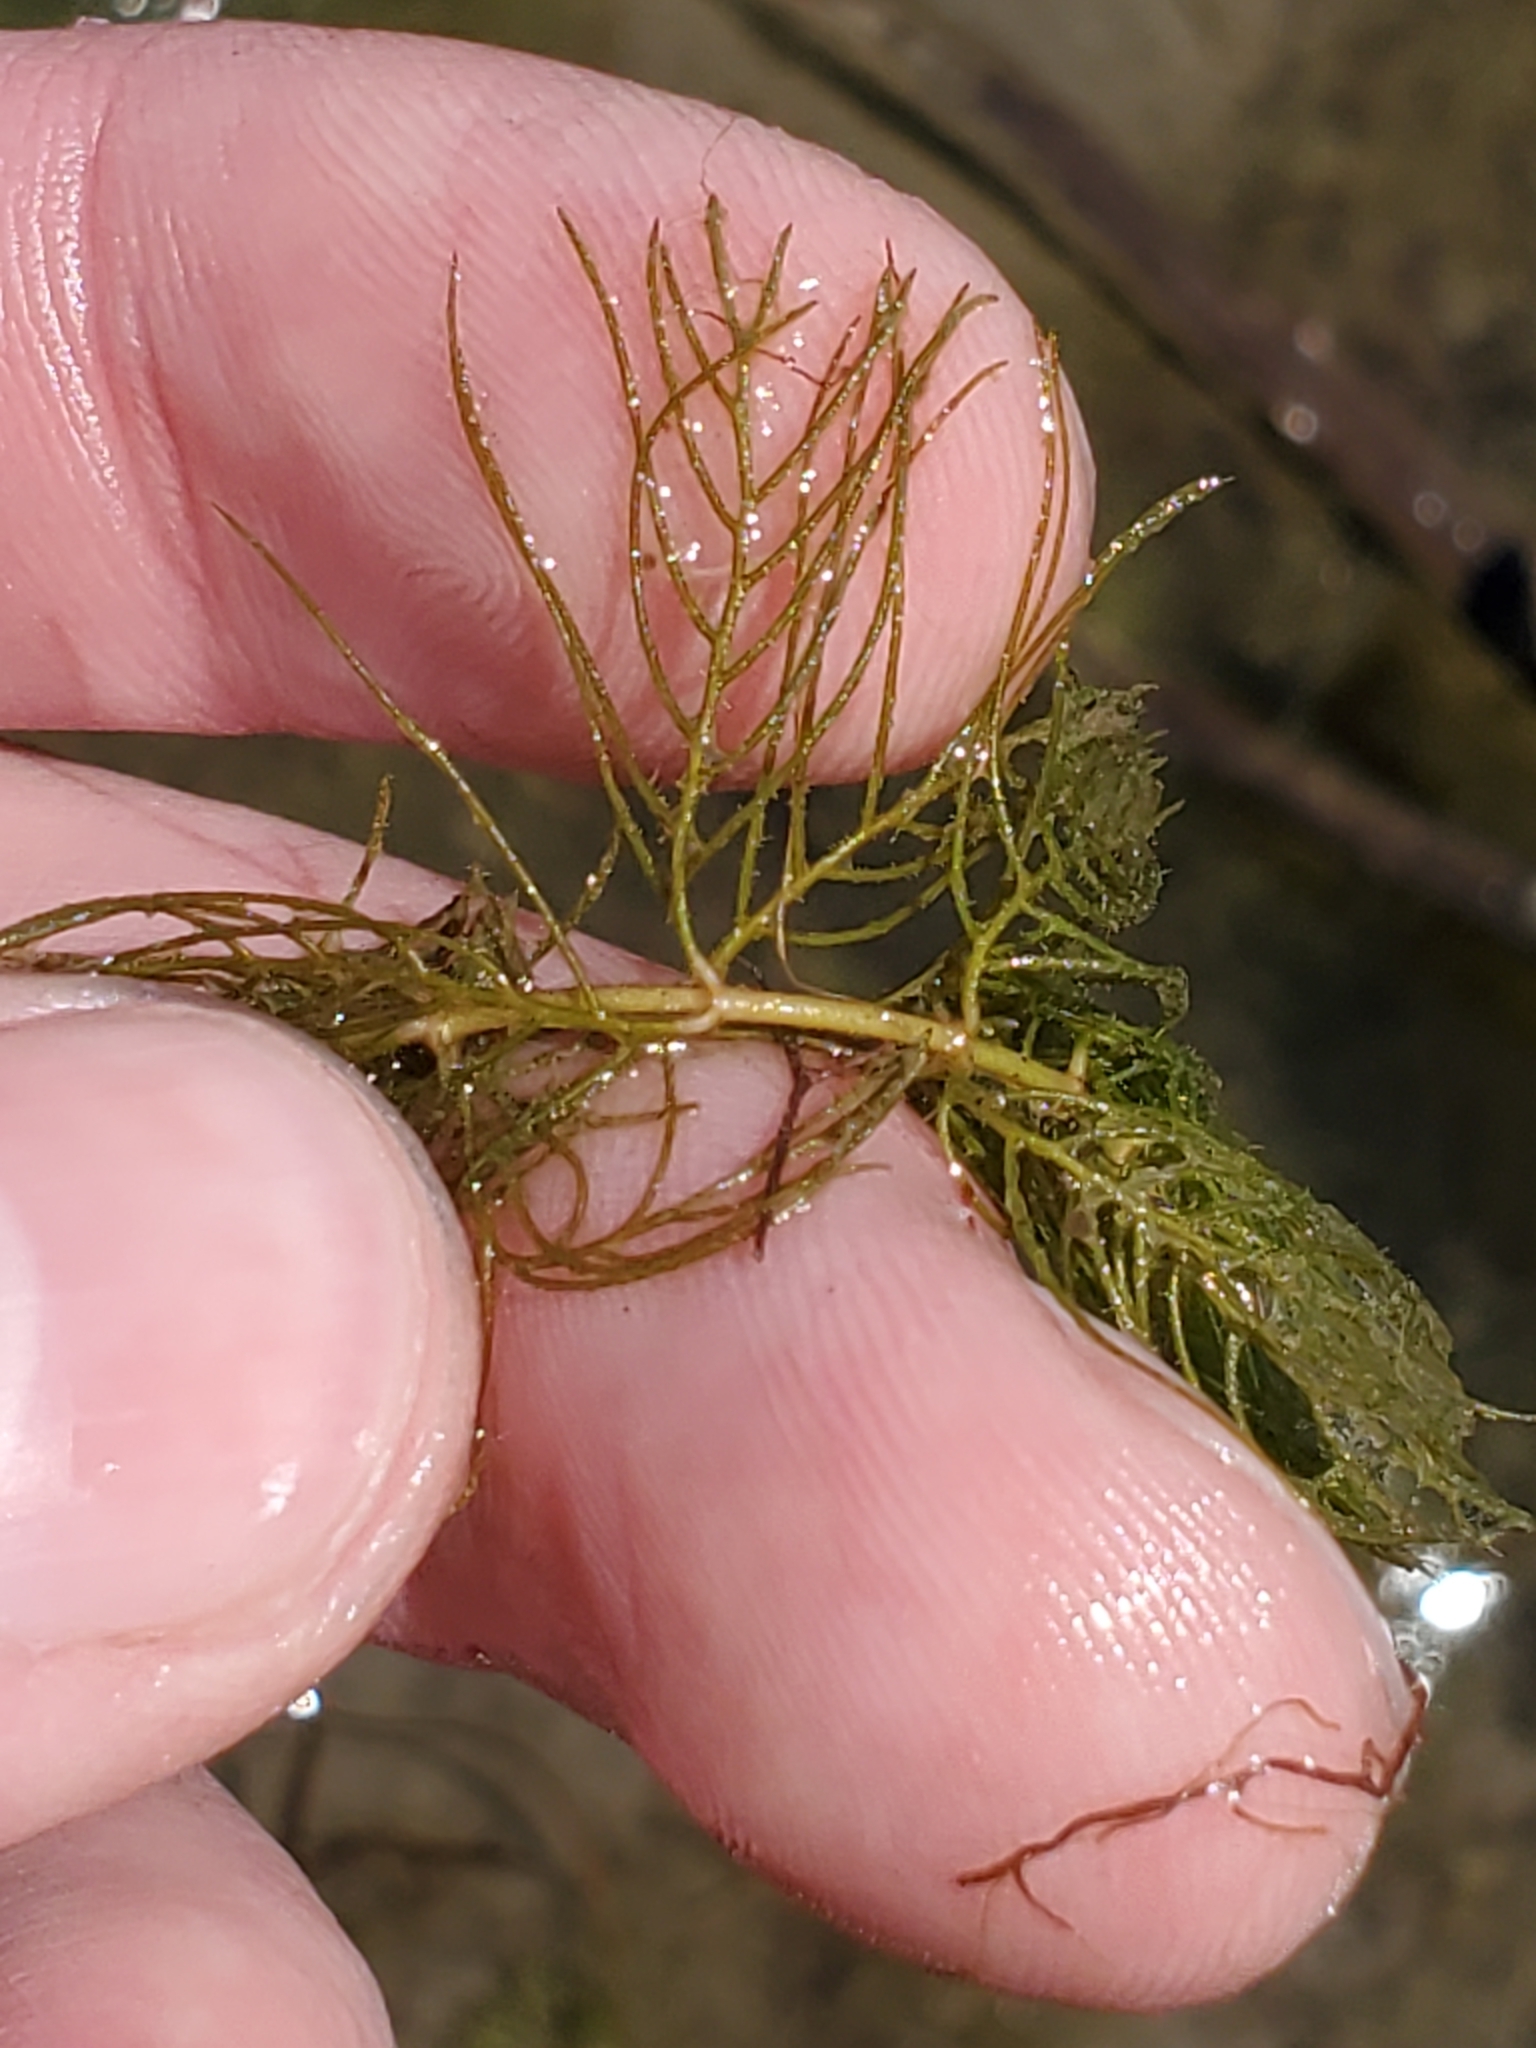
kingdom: Plantae
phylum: Tracheophyta
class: Magnoliopsida
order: Saxifragales
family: Haloragaceae
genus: Myriophyllum
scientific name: Myriophyllum sibiricum
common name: Siberian water-milfoil
